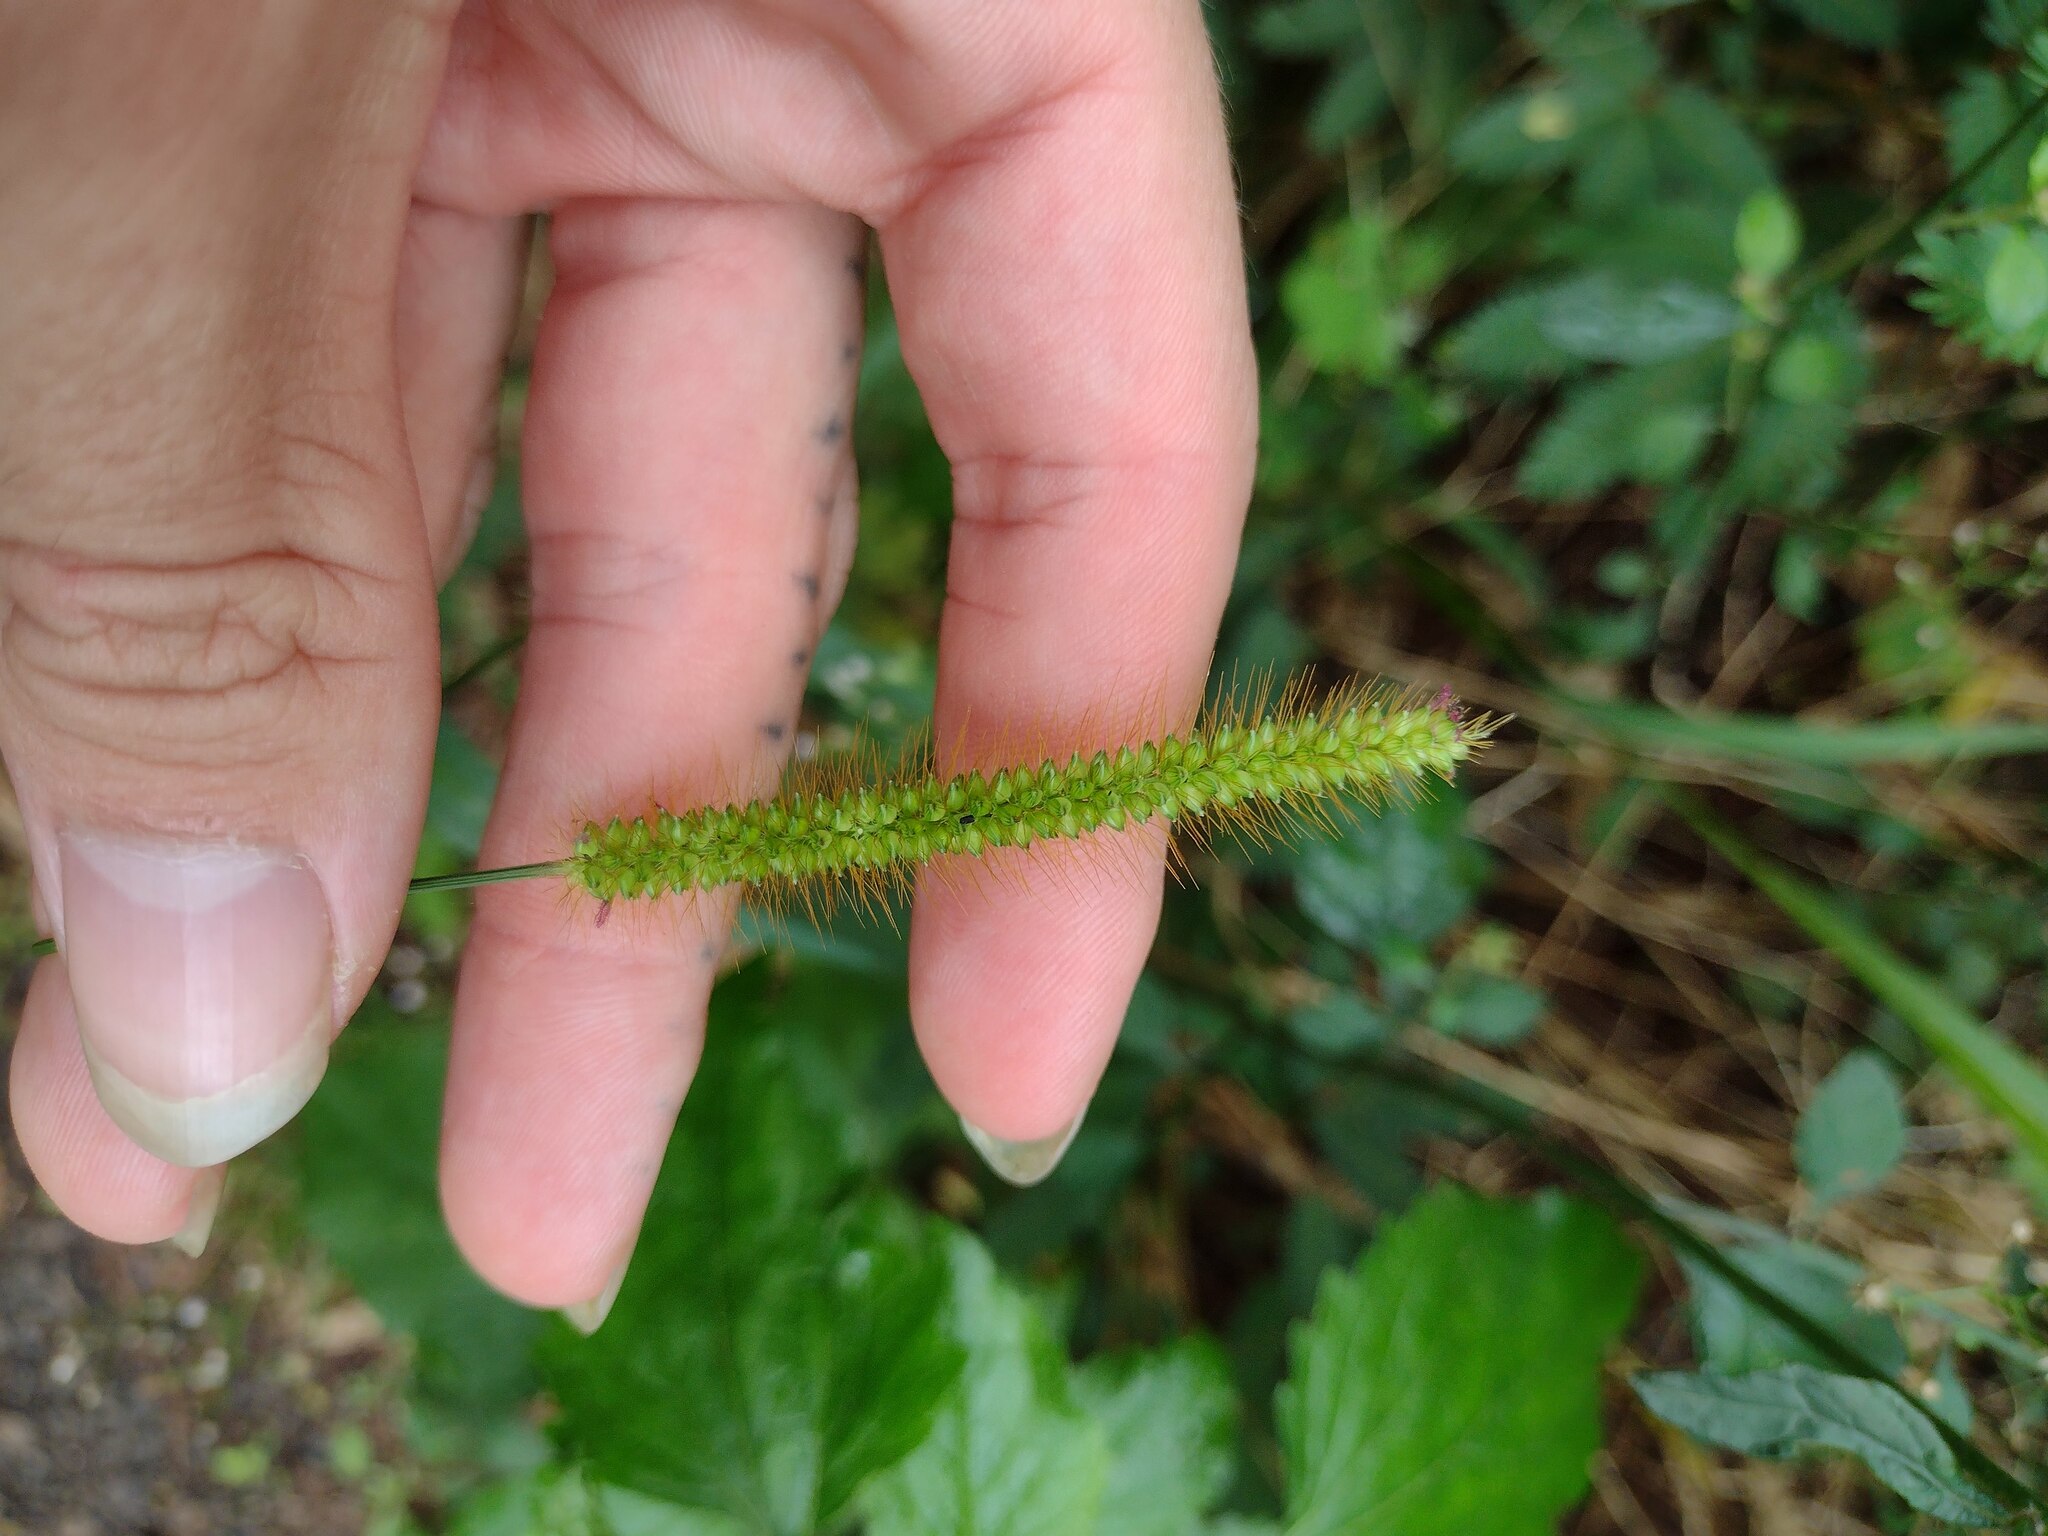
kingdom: Plantae
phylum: Tracheophyta
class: Liliopsida
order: Poales
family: Poaceae
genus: Setaria
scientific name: Setaria parviflora
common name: Knotroot bristle-grass
